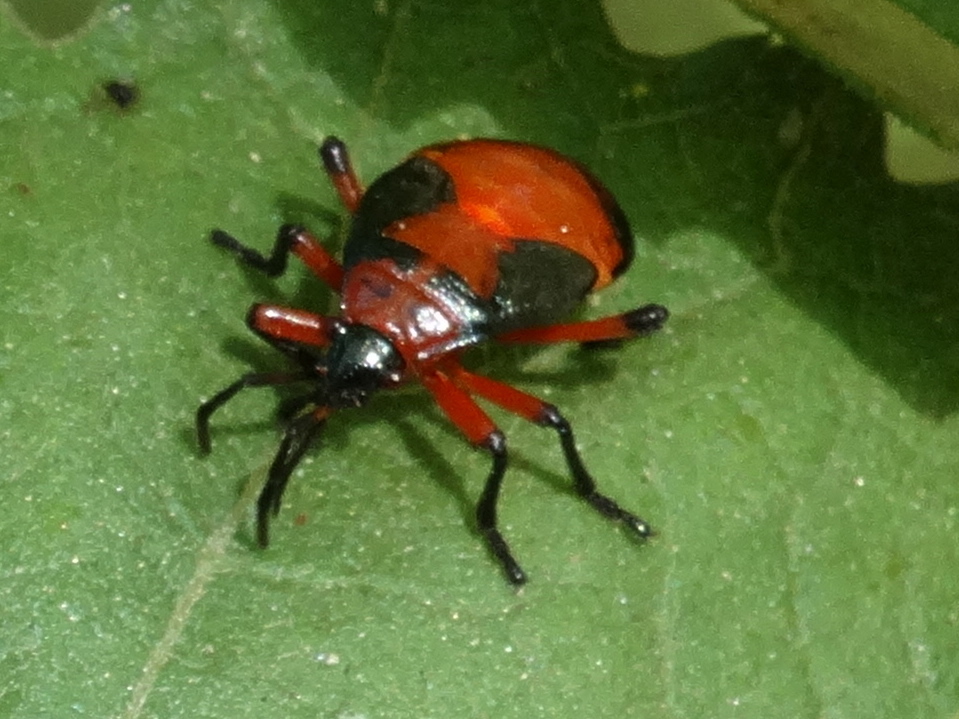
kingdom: Animalia
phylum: Arthropoda
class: Insecta
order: Hemiptera
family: Largidae
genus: Largus
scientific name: Largus
